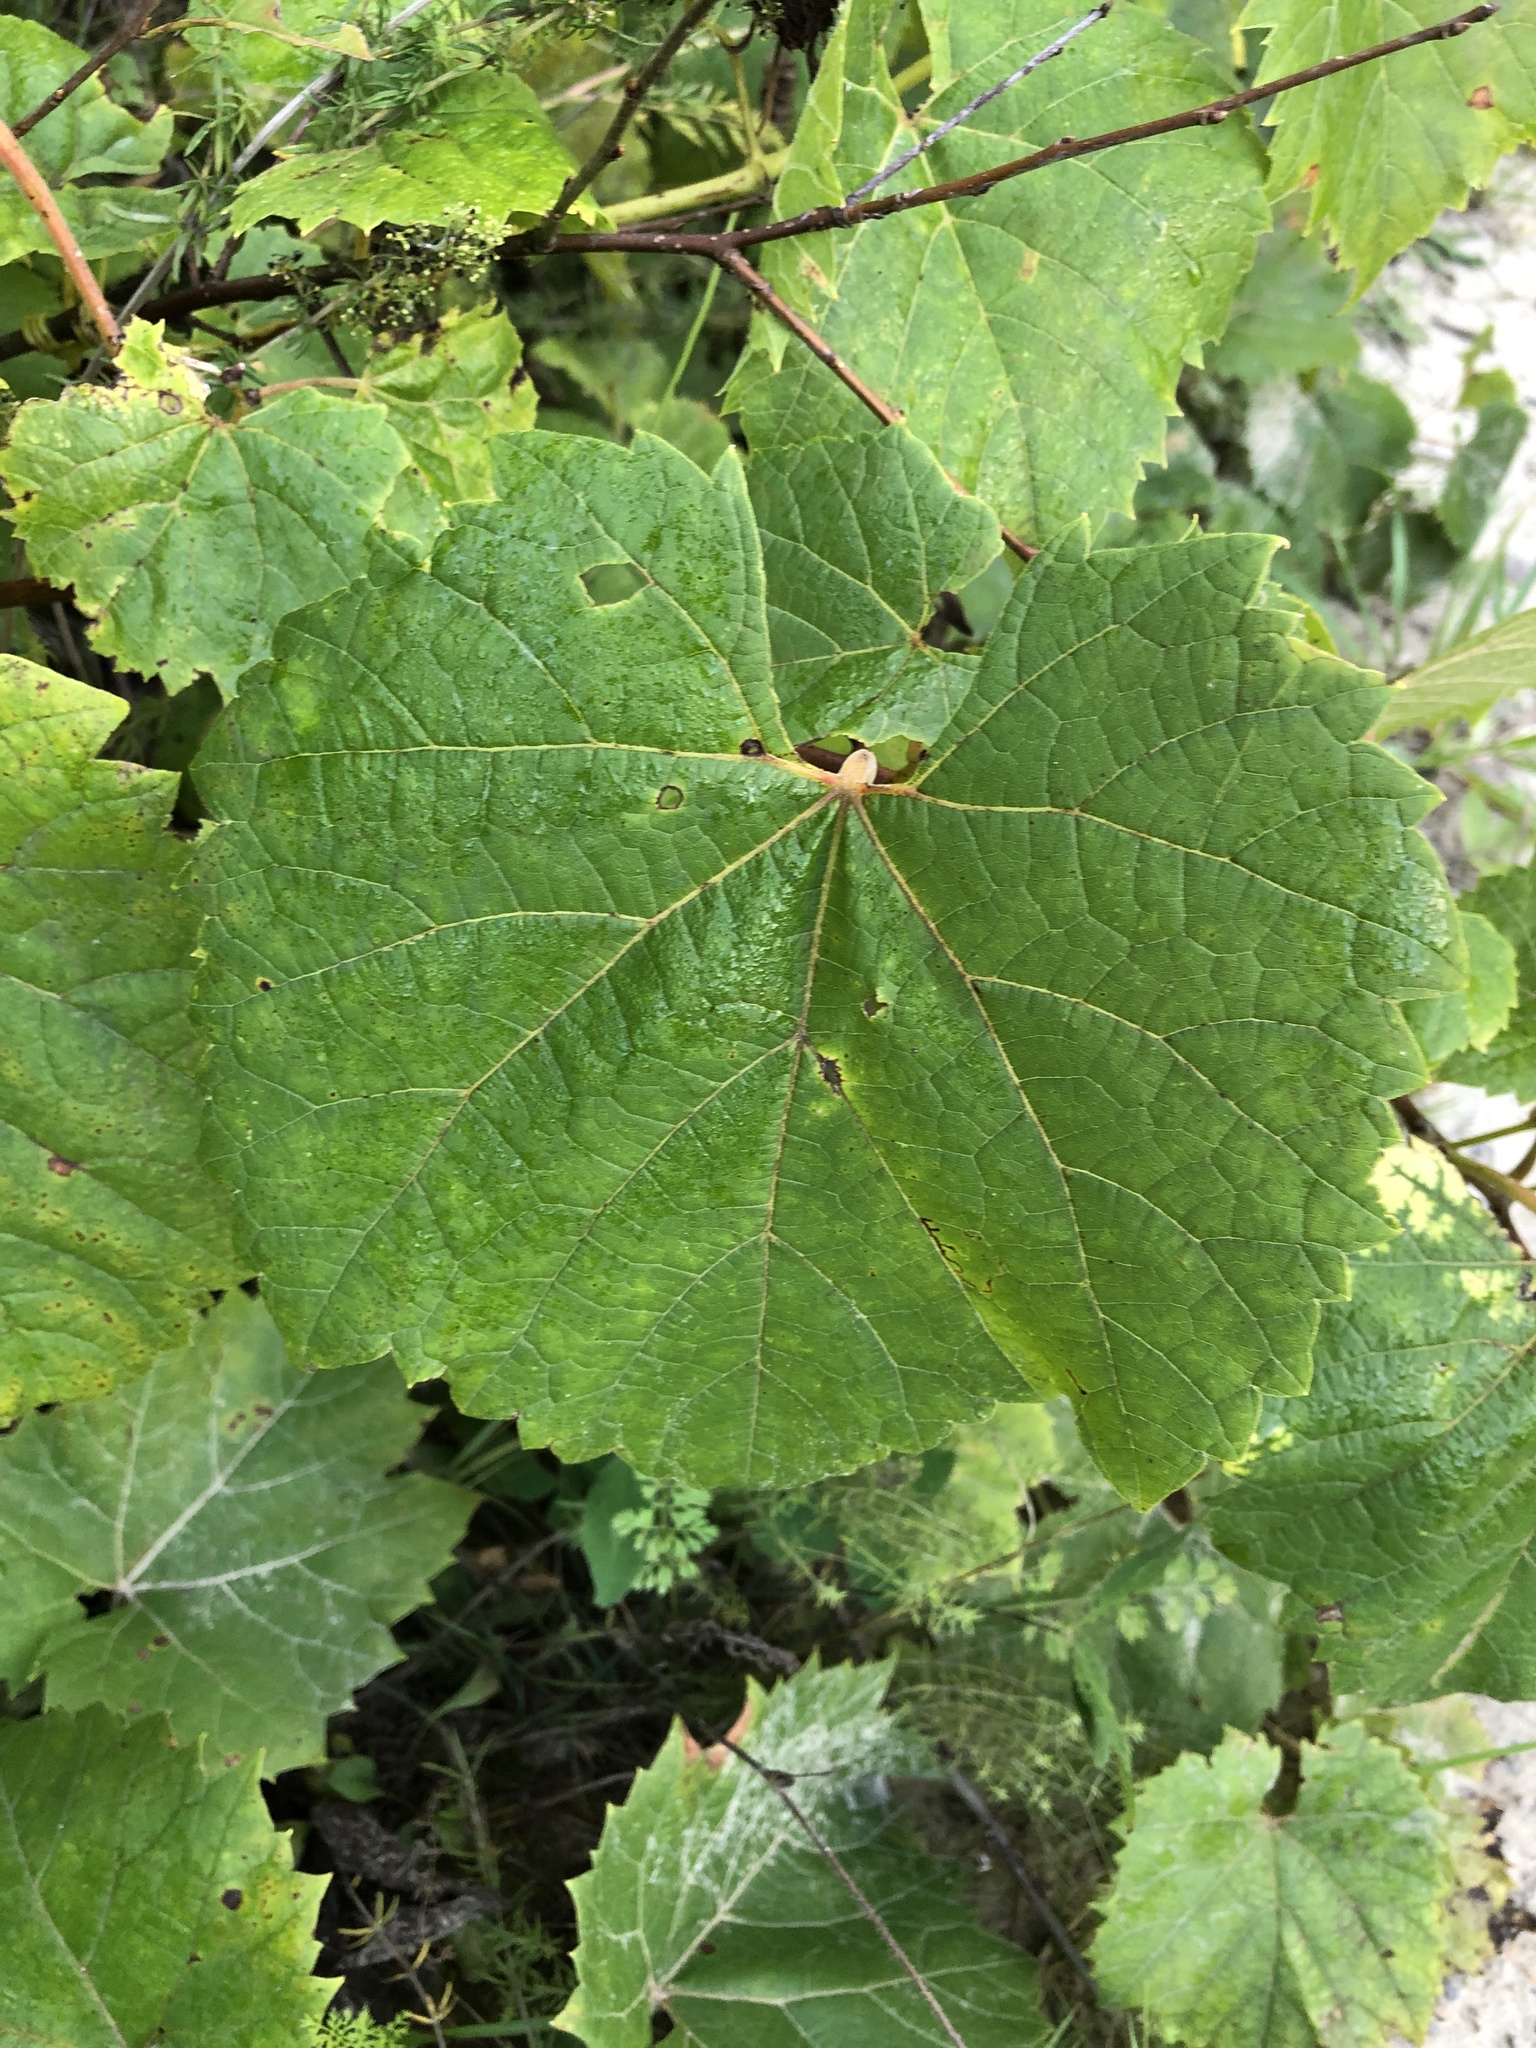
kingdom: Plantae
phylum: Tracheophyta
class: Magnoliopsida
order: Vitales
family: Vitaceae
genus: Vitis
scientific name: Vitis riparia
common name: Frost grape
